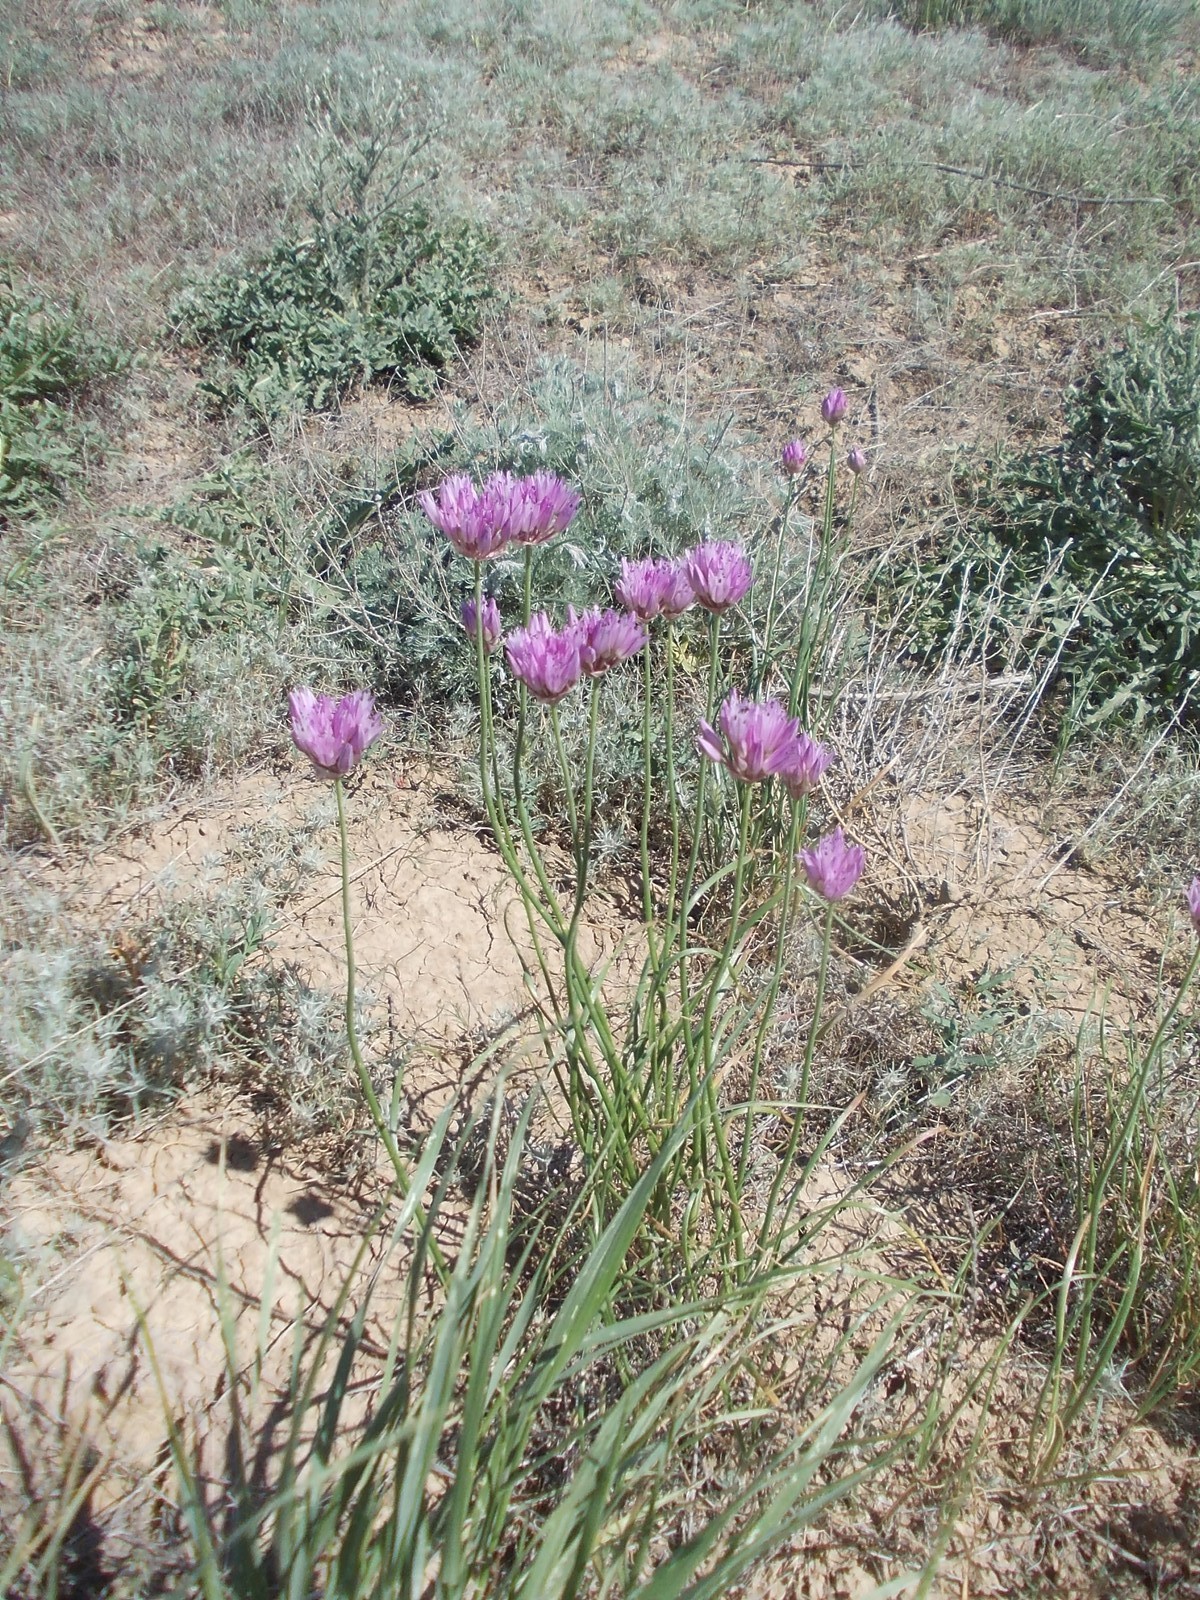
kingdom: Plantae
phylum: Tracheophyta
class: Liliopsida
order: Asparagales
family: Amaryllidaceae
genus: Allium
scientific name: Allium inderiense
